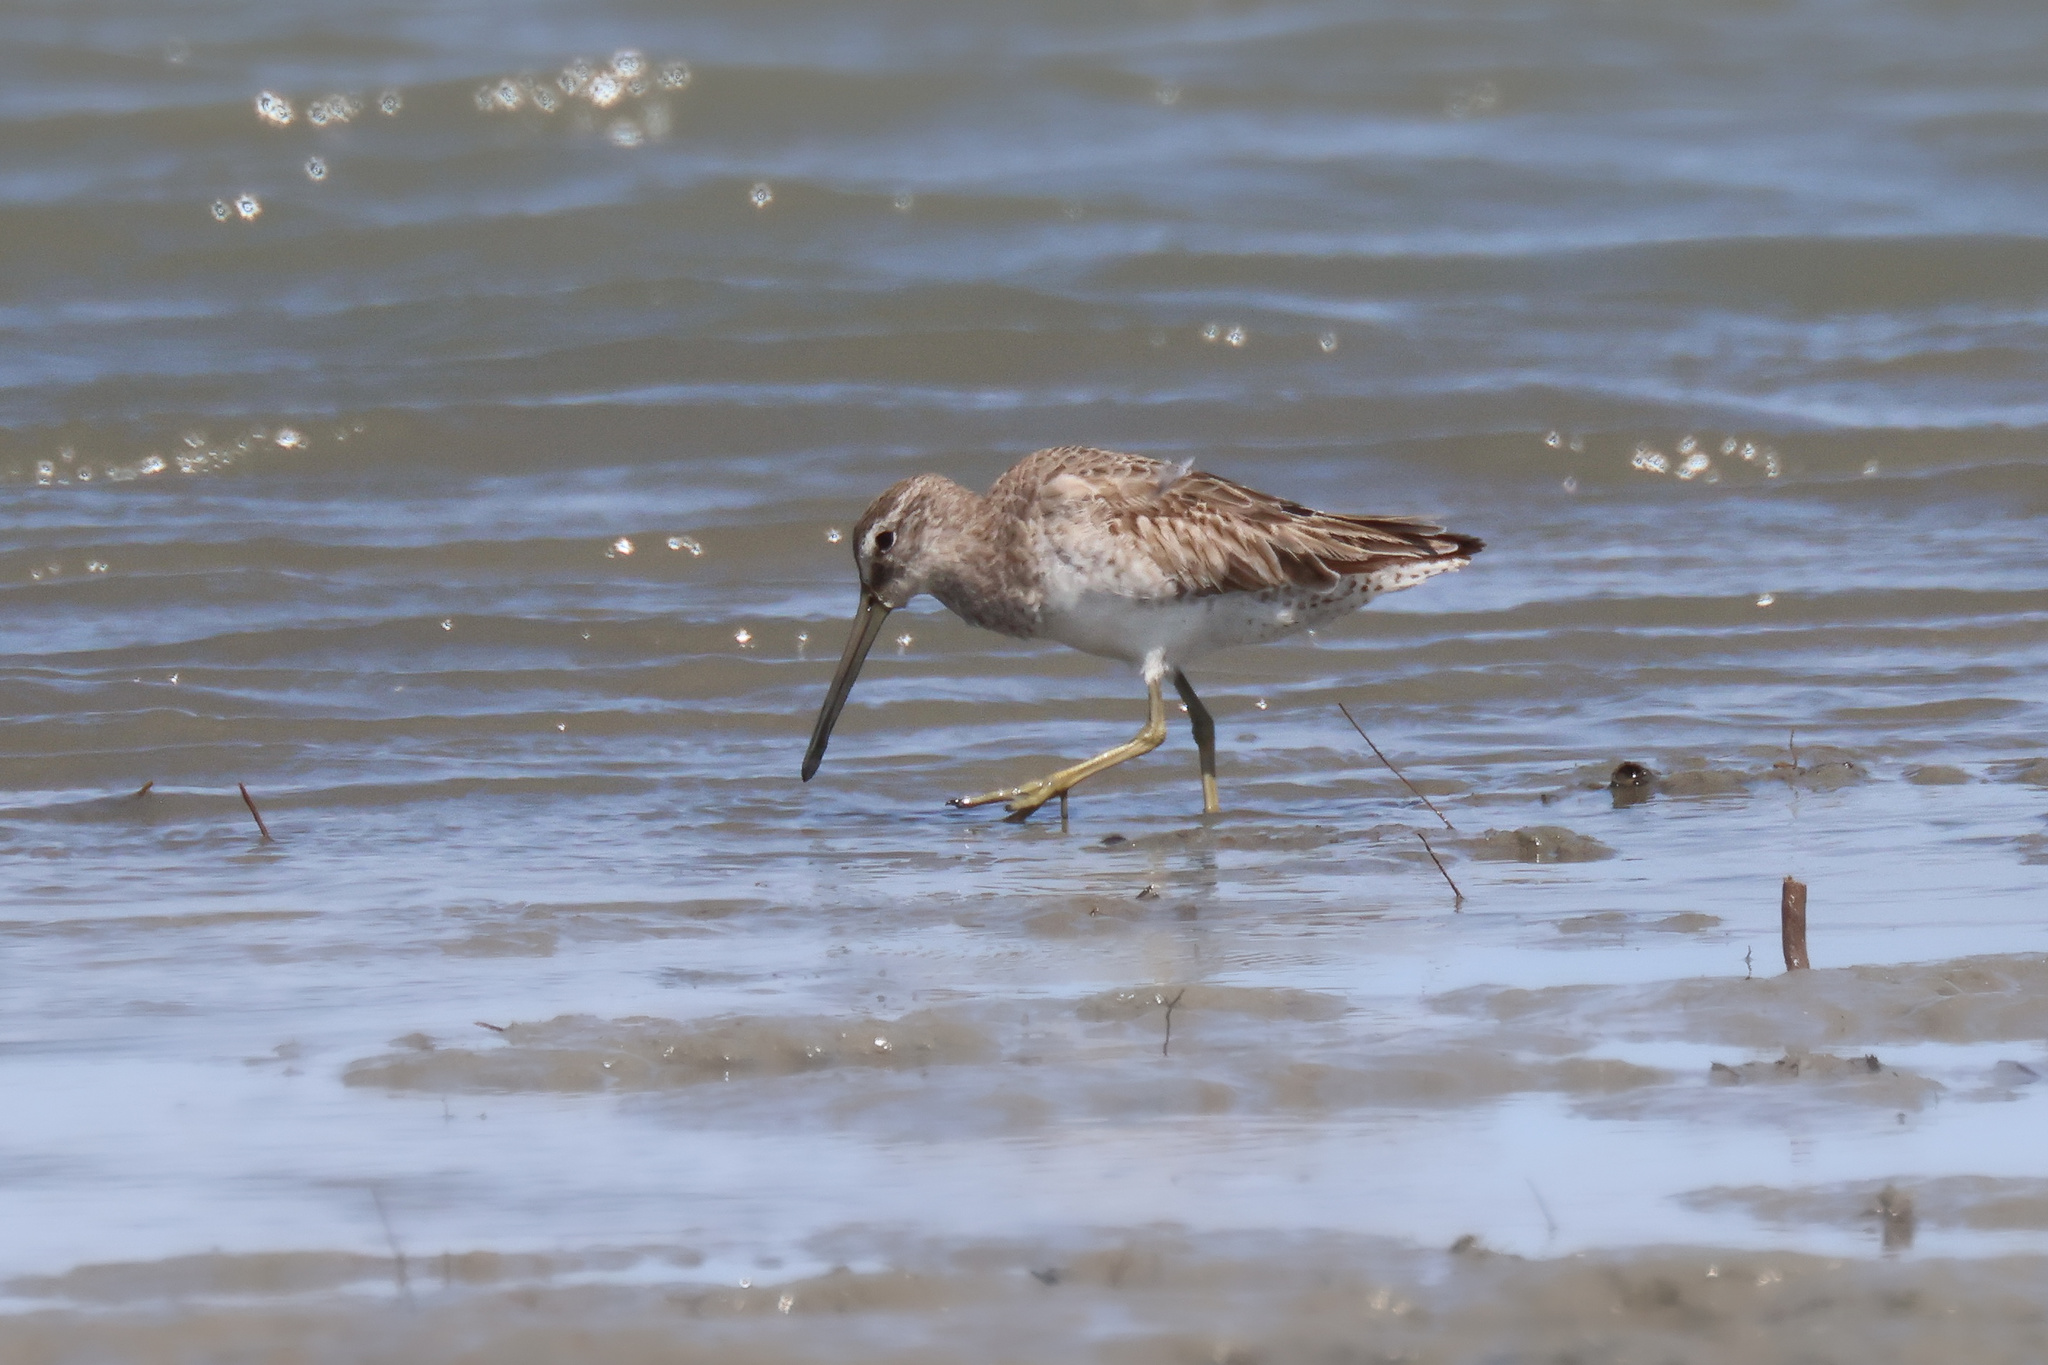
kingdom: Animalia
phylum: Chordata
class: Aves
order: Charadriiformes
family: Scolopacidae
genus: Limnodromus
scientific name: Limnodromus griseus
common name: Short-billed dowitcher
